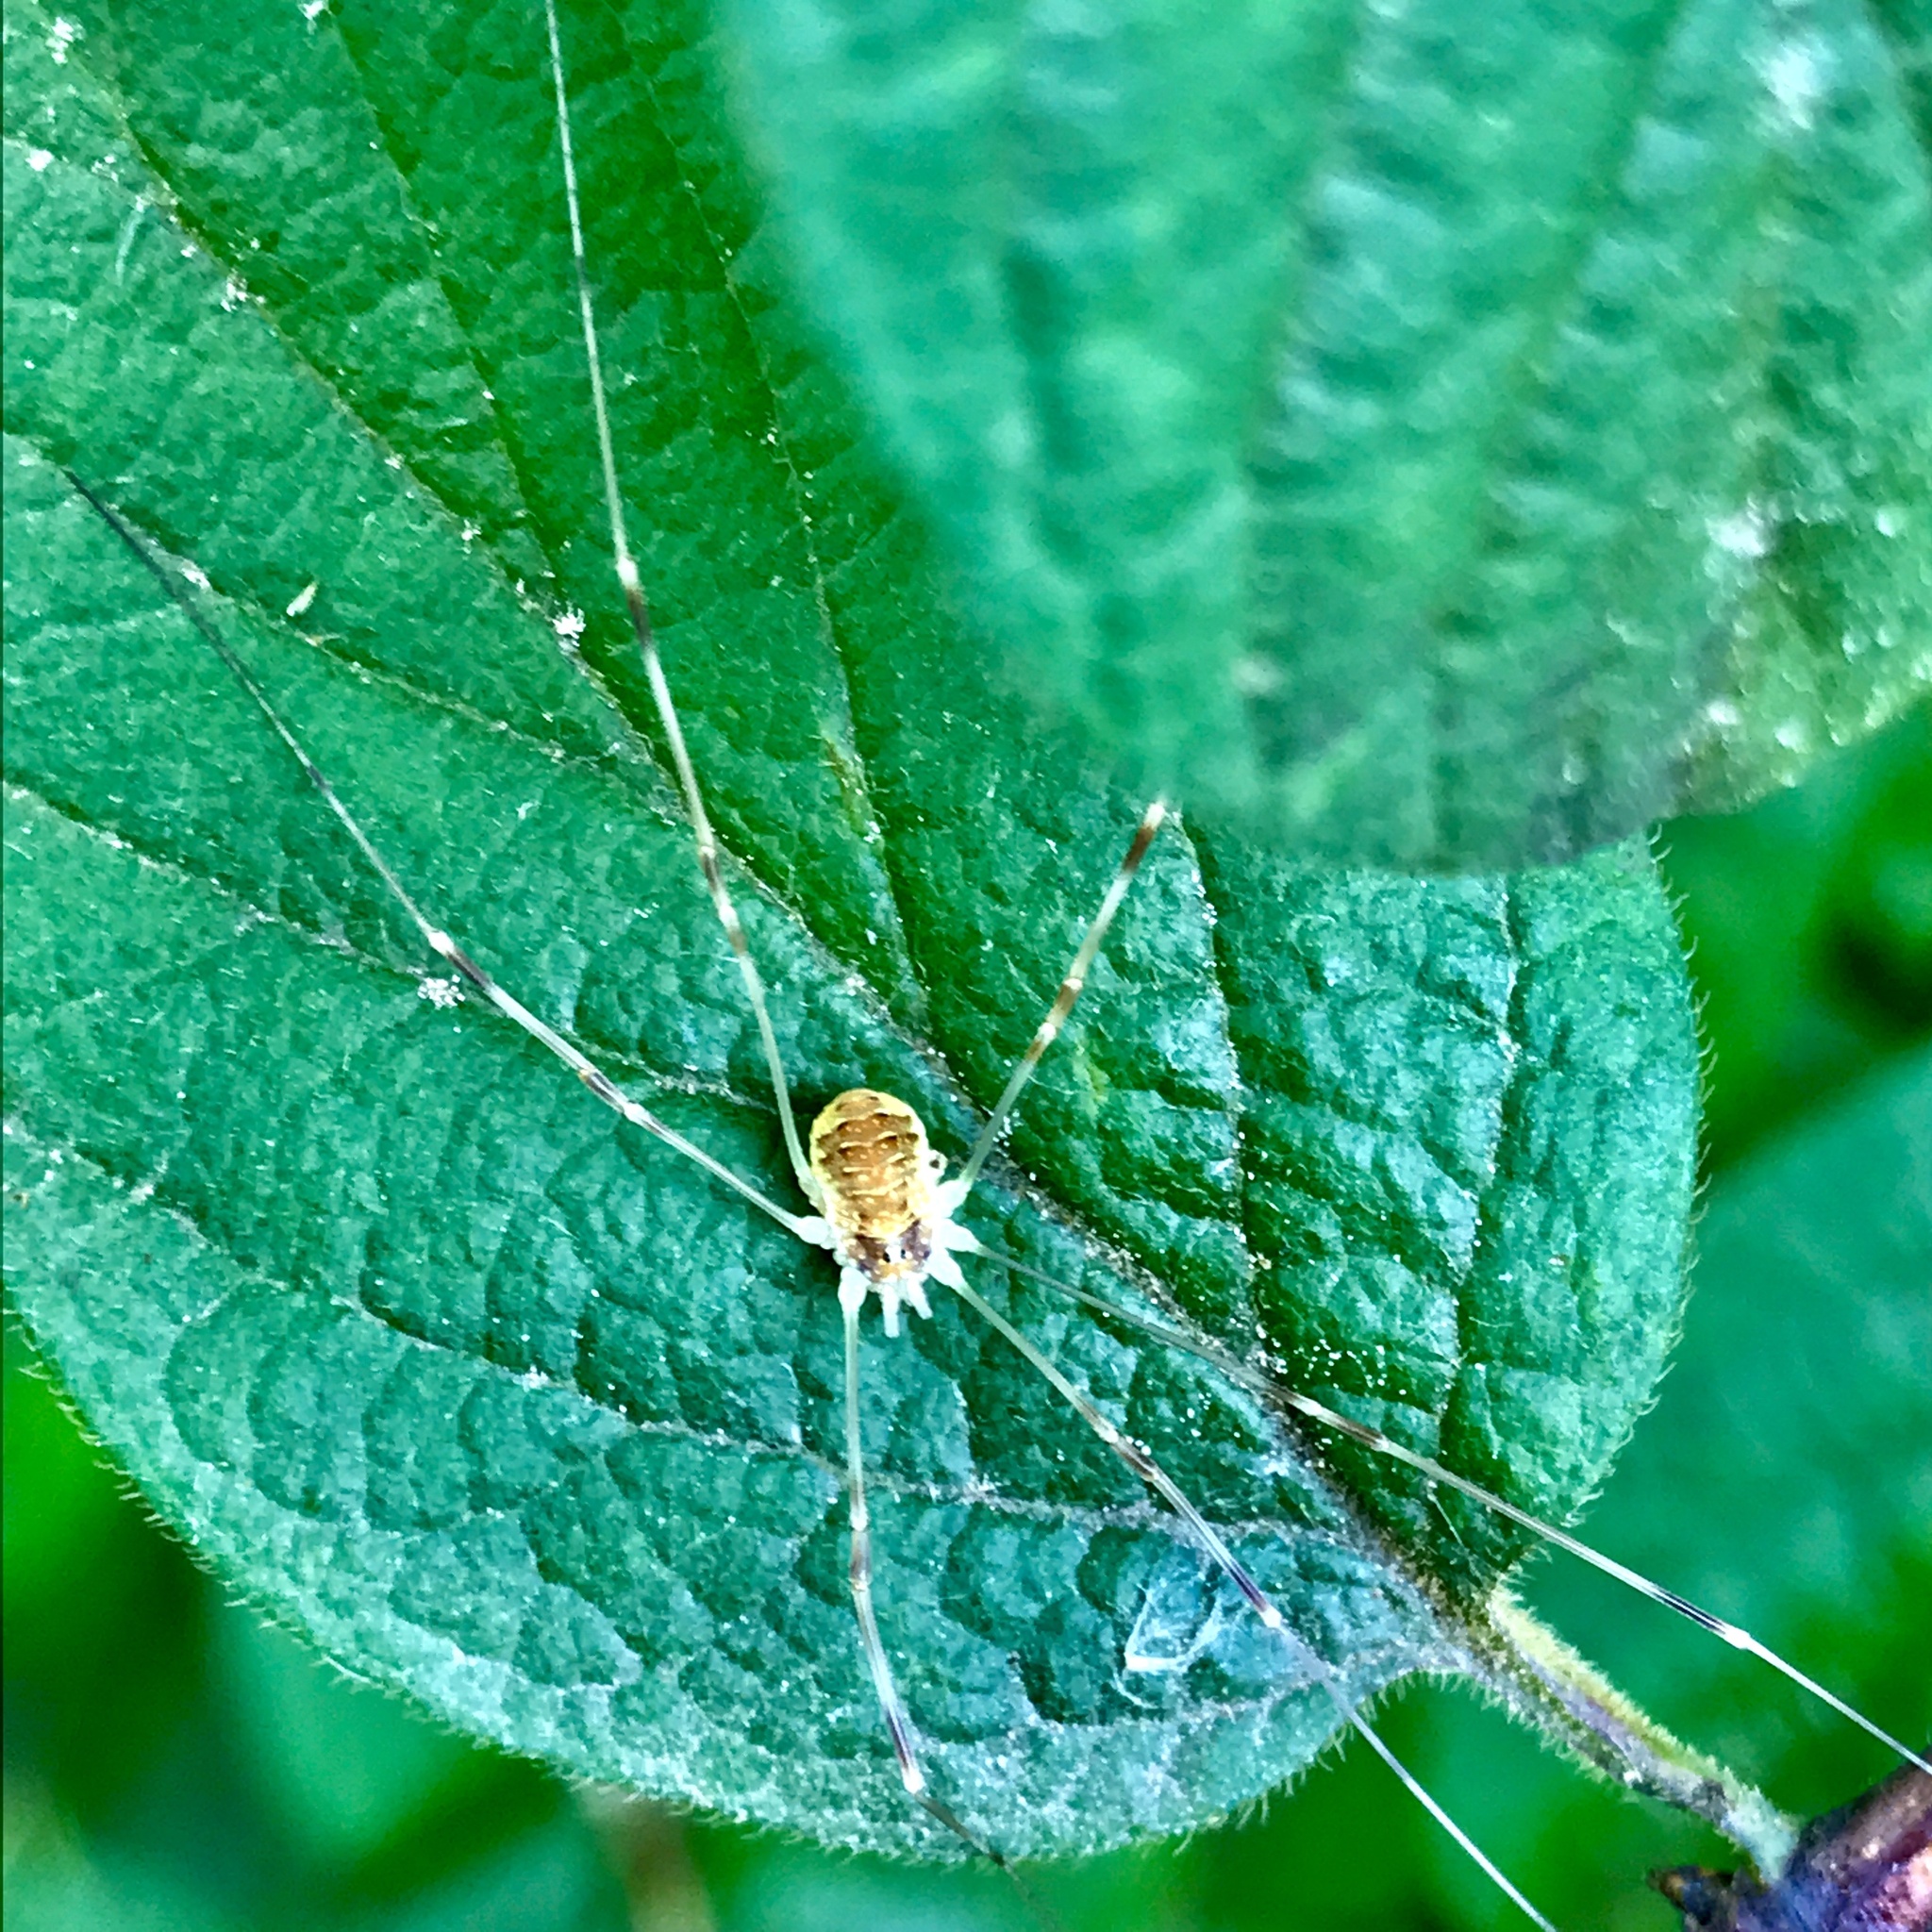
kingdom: Animalia
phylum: Arthropoda
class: Arachnida
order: Opiliones
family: Phalangiidae
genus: Opilio
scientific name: Opilio canestrinii
